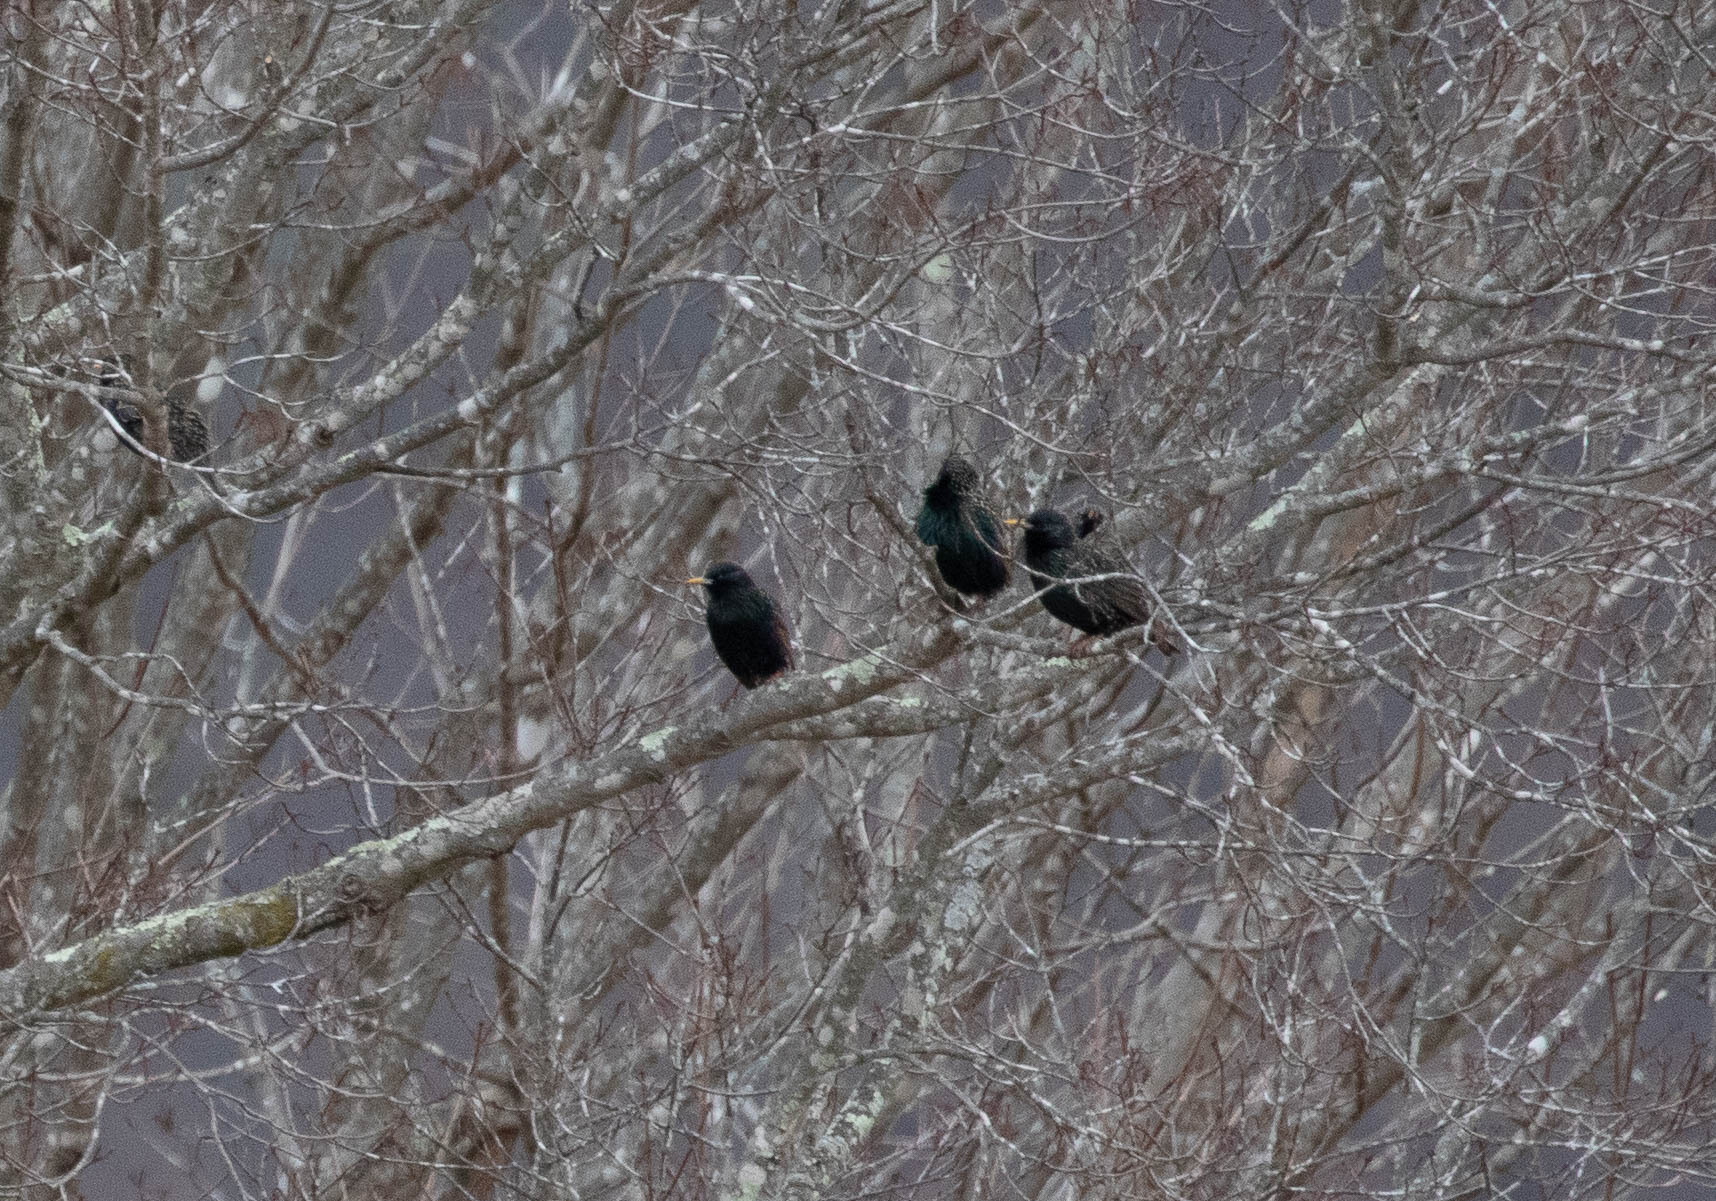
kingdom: Animalia
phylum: Chordata
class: Aves
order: Passeriformes
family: Sturnidae
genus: Sturnus
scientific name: Sturnus vulgaris
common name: Common starling
